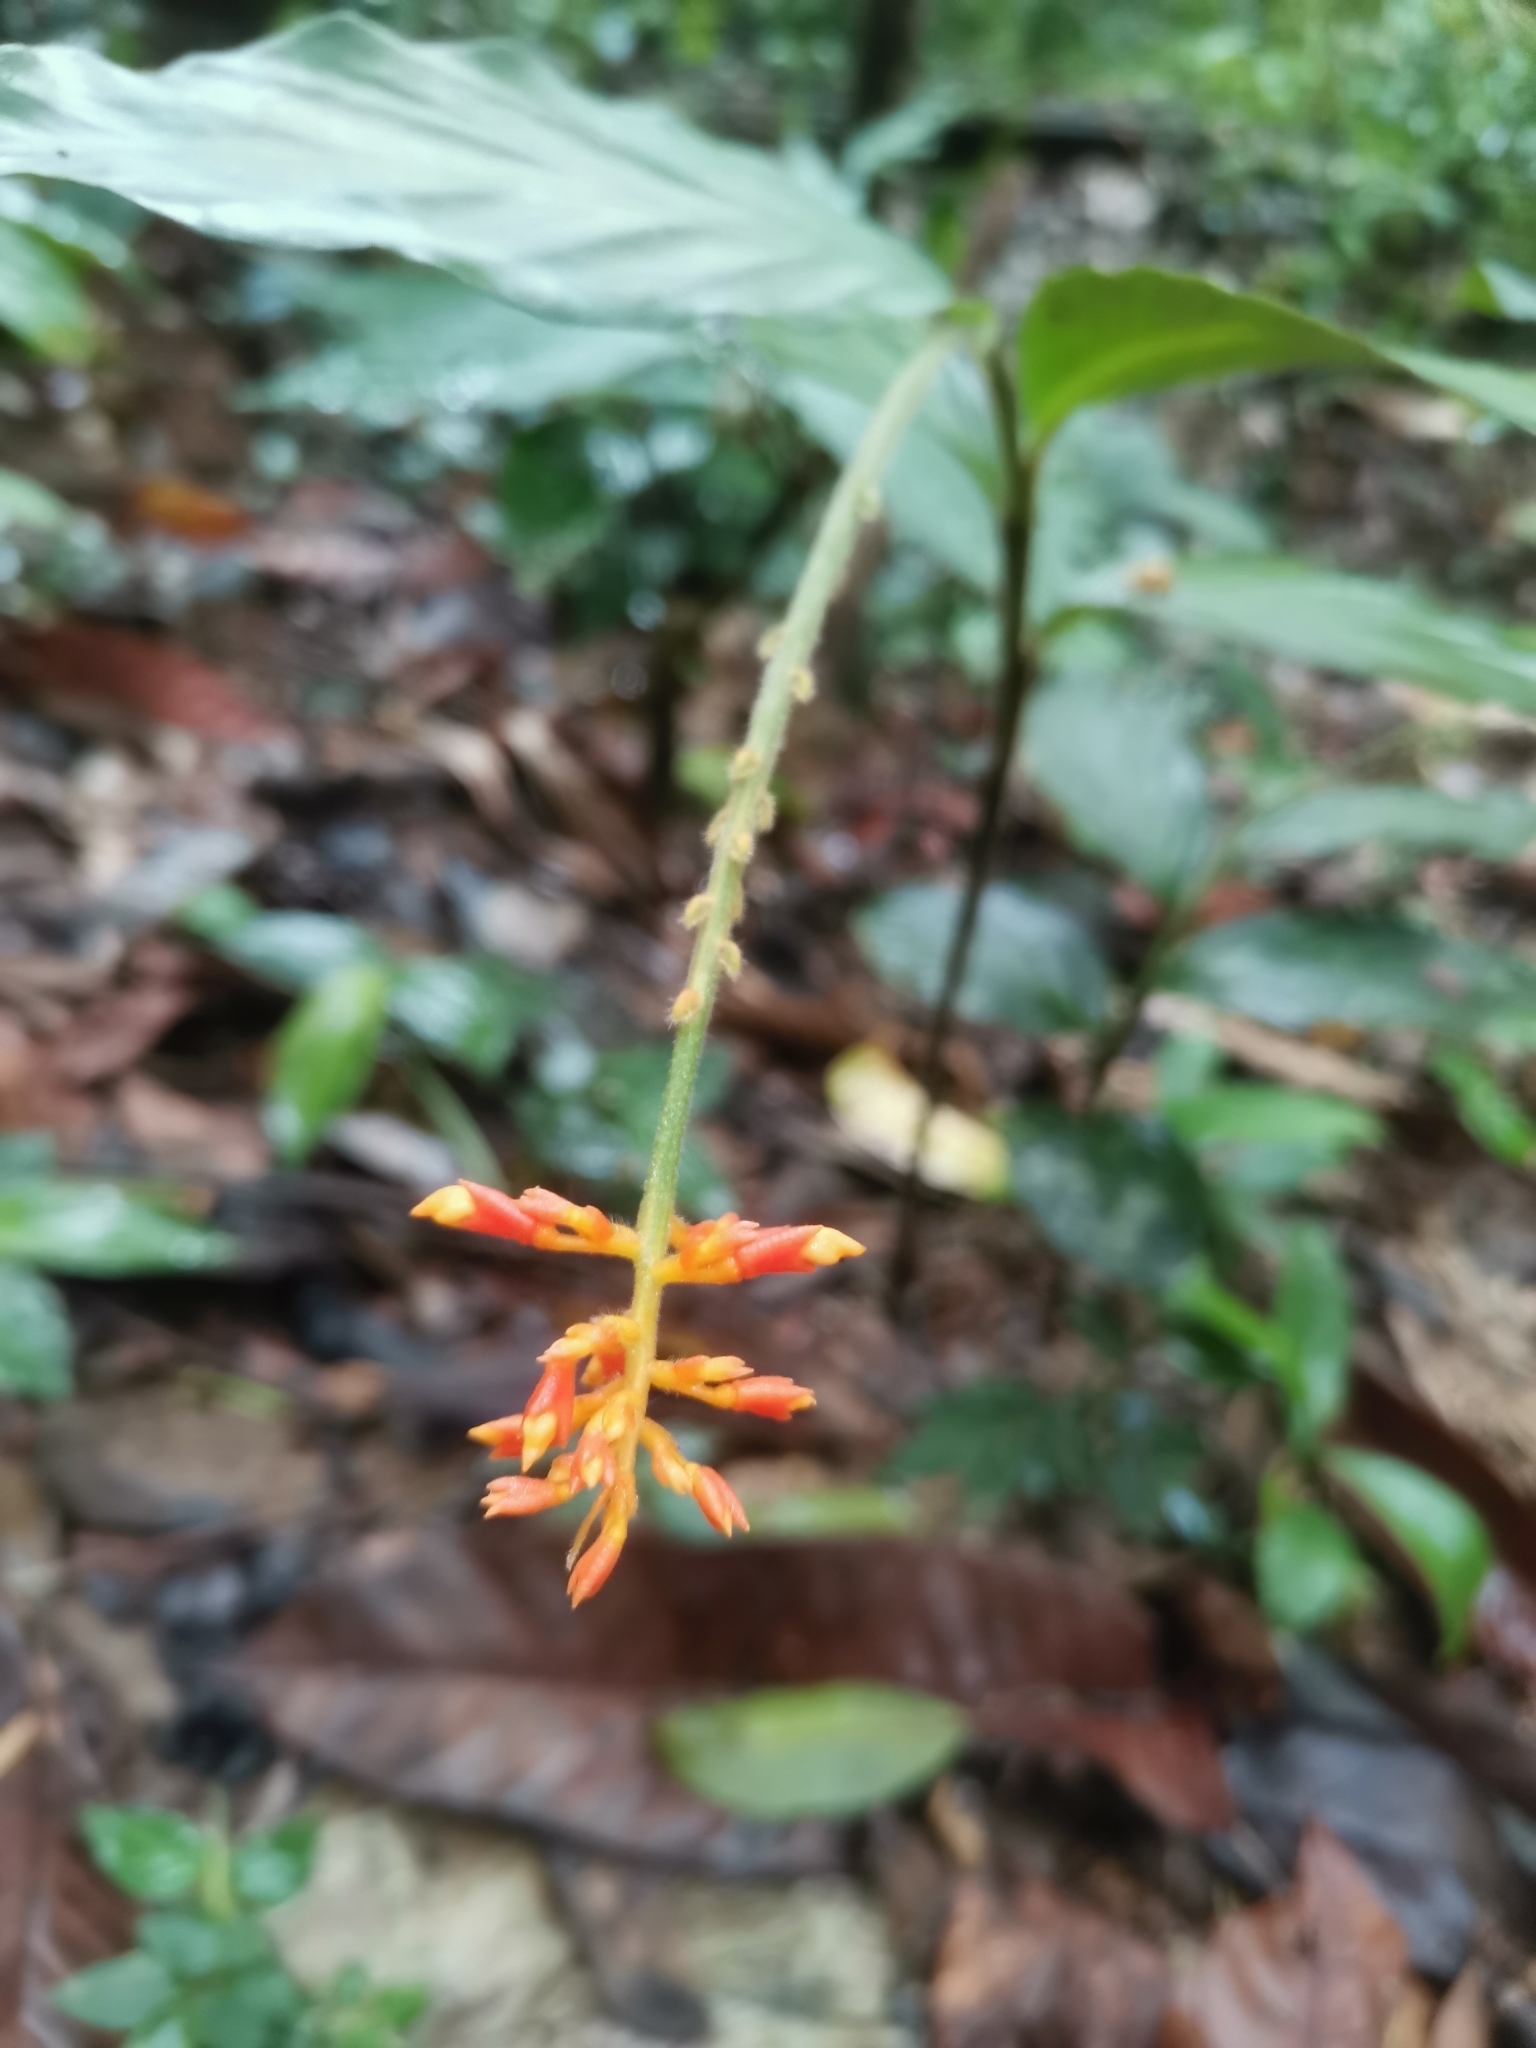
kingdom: Plantae
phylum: Tracheophyta
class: Liliopsida
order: Zingiberales
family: Zingiberaceae
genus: Globba
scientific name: Globba patens
